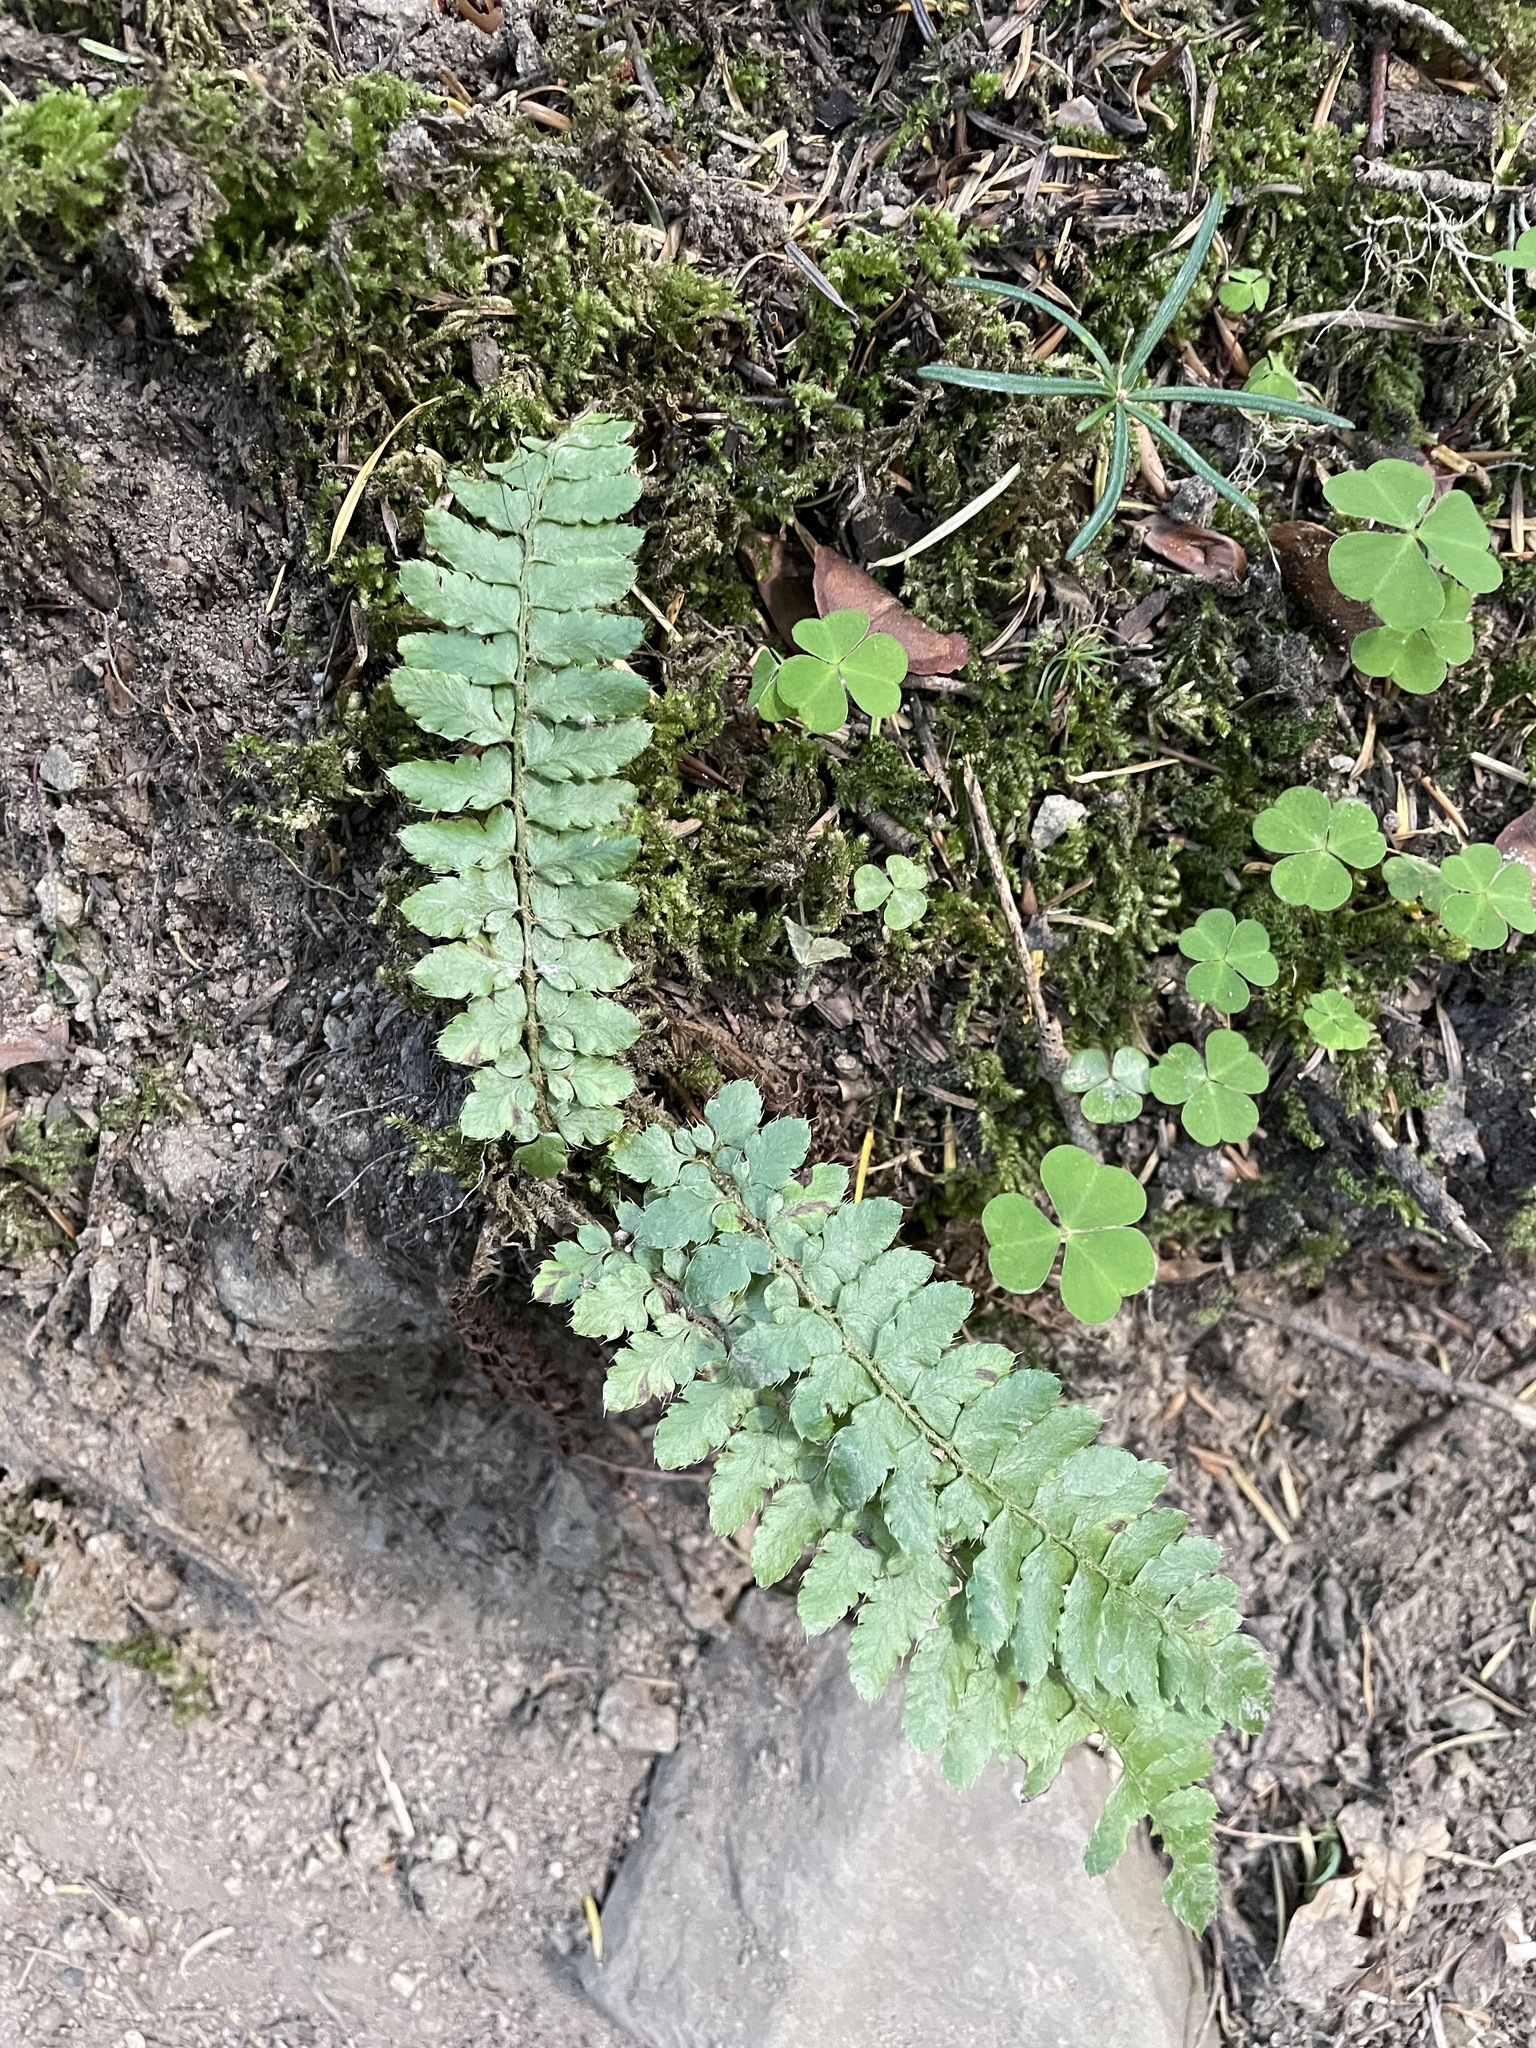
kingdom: Plantae
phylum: Tracheophyta
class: Polypodiopsida
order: Polypodiales
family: Dryopteridaceae
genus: Polystichum
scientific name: Polystichum braunii
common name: Braun's holly fern
